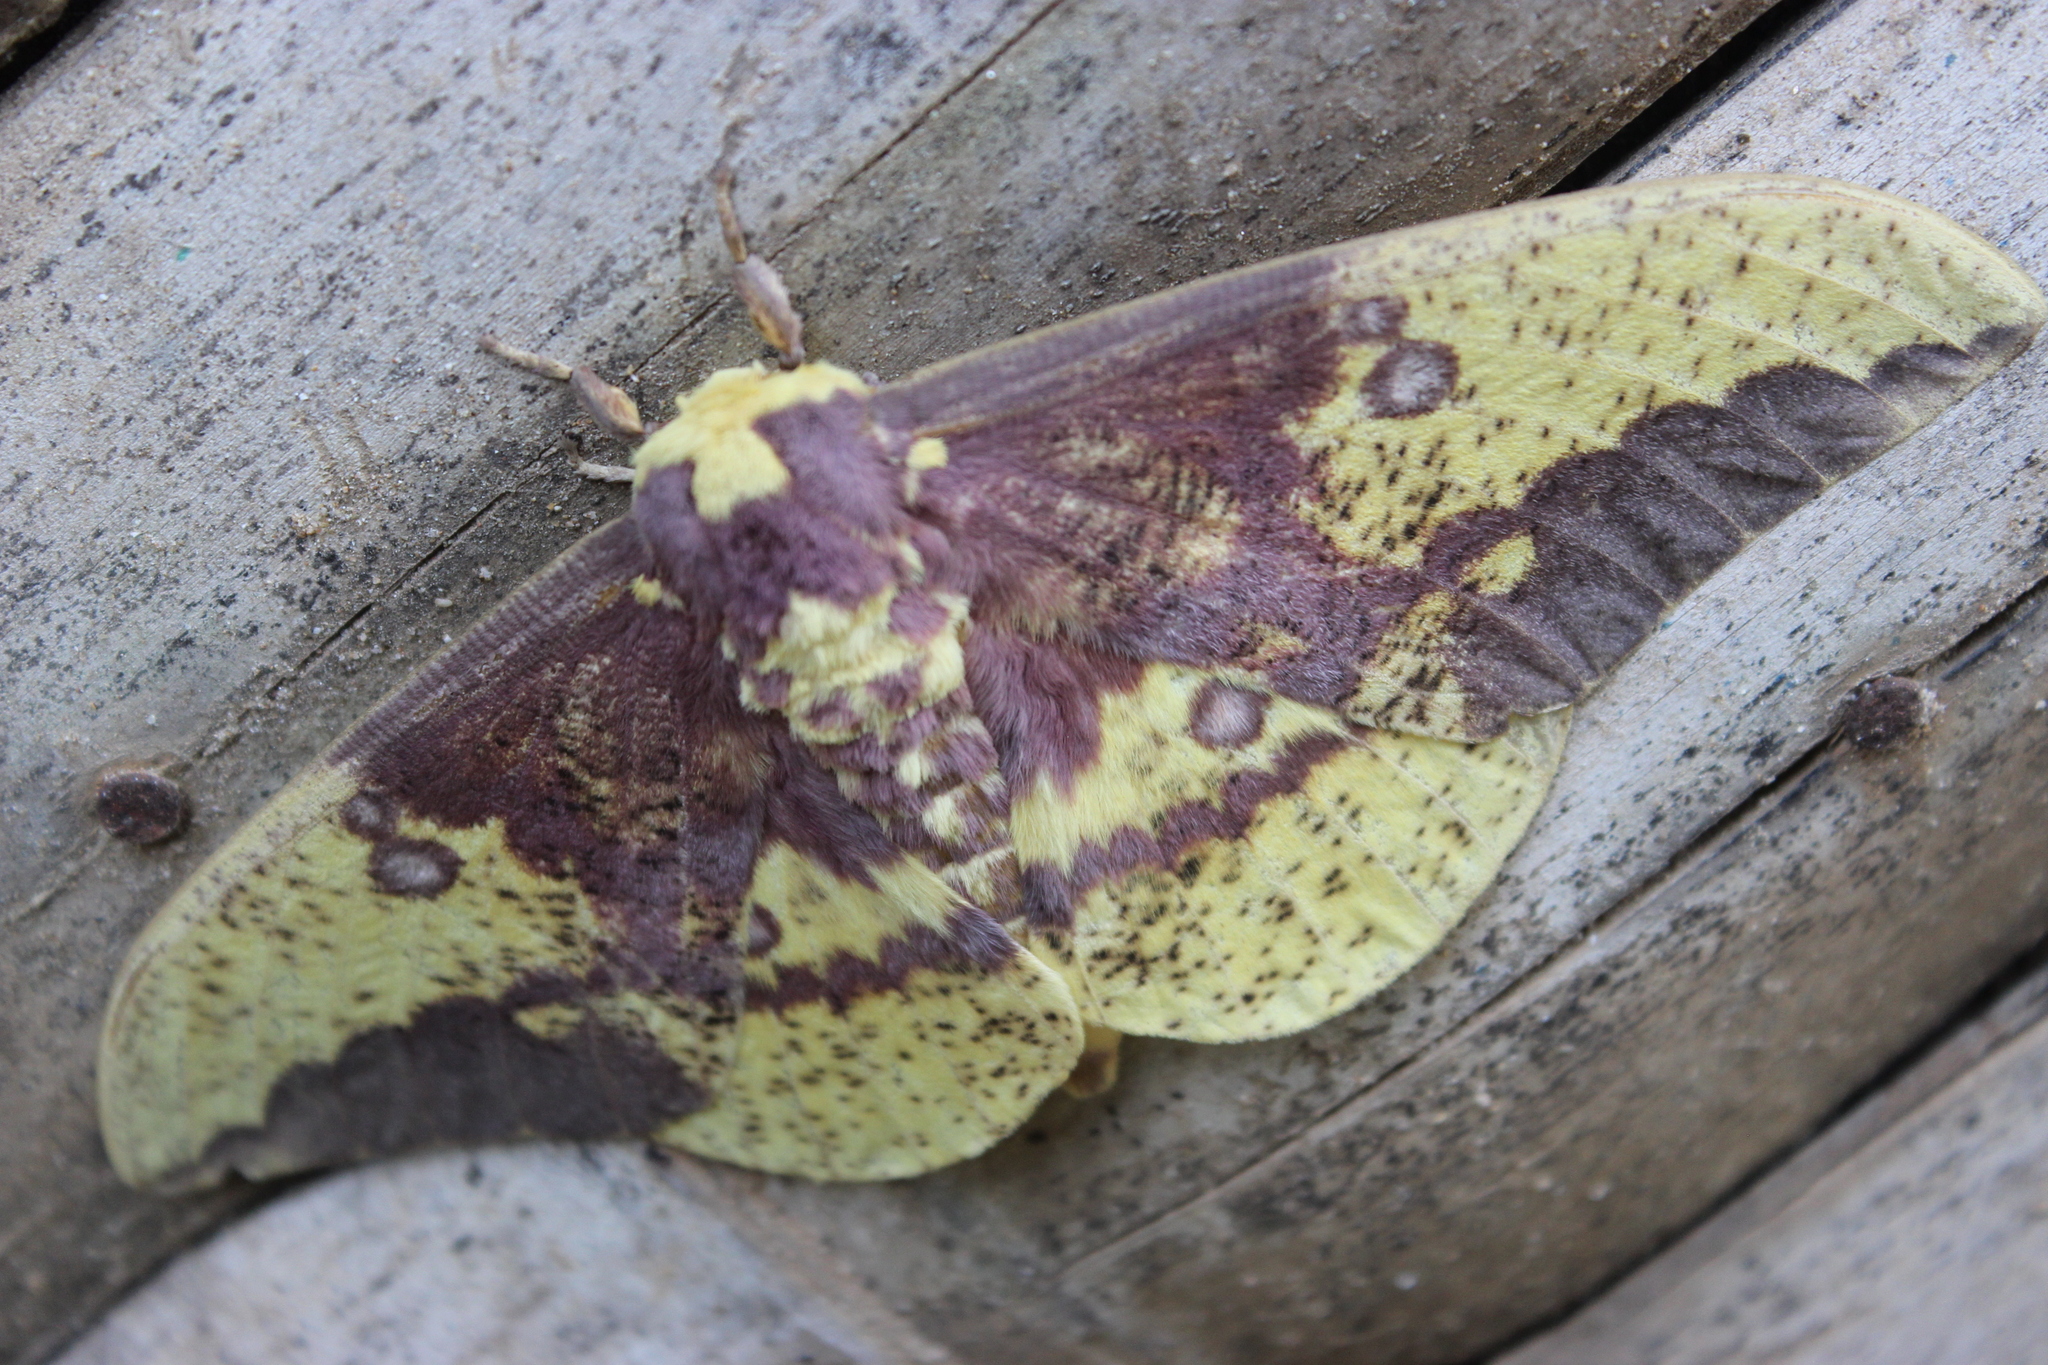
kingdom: Animalia
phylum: Arthropoda
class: Insecta
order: Lepidoptera
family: Saturniidae
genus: Eacles
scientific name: Eacles imperialis
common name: Imperial moth
